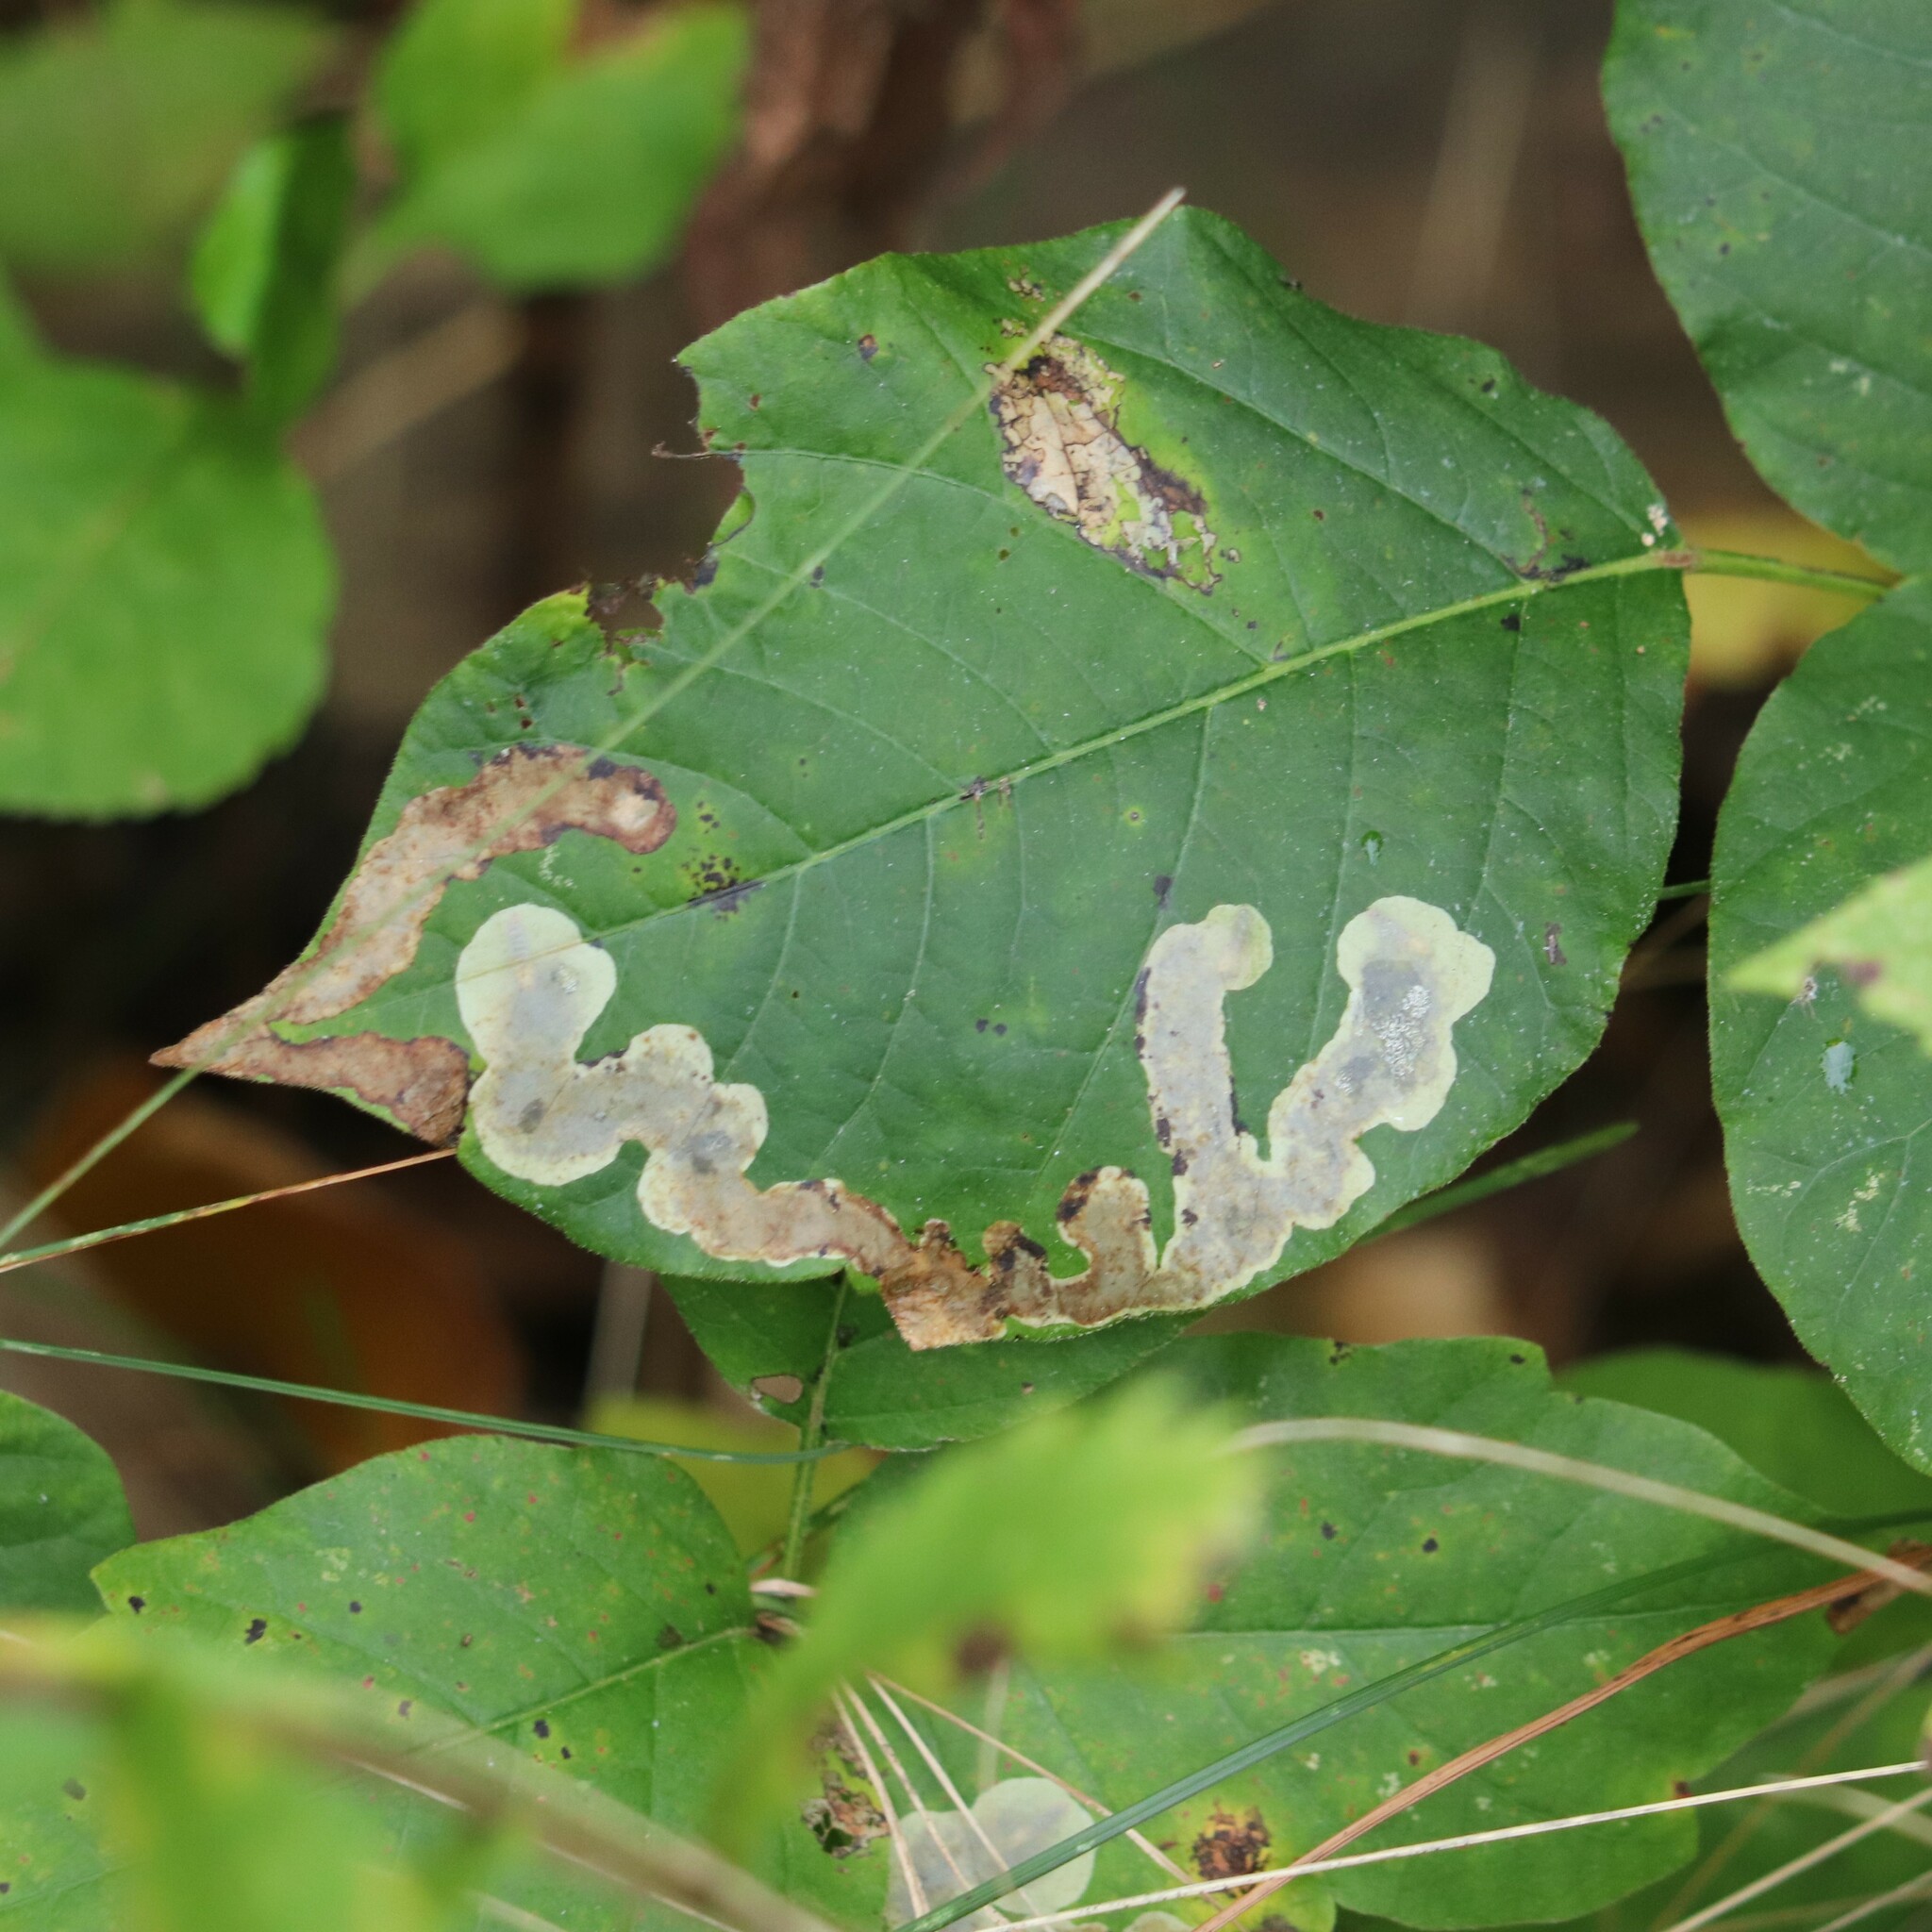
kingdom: Animalia
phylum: Arthropoda
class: Insecta
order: Lepidoptera
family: Gracillariidae
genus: Cameraria
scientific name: Cameraria guttifinitella
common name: Poison ivy leaf-miner moth
